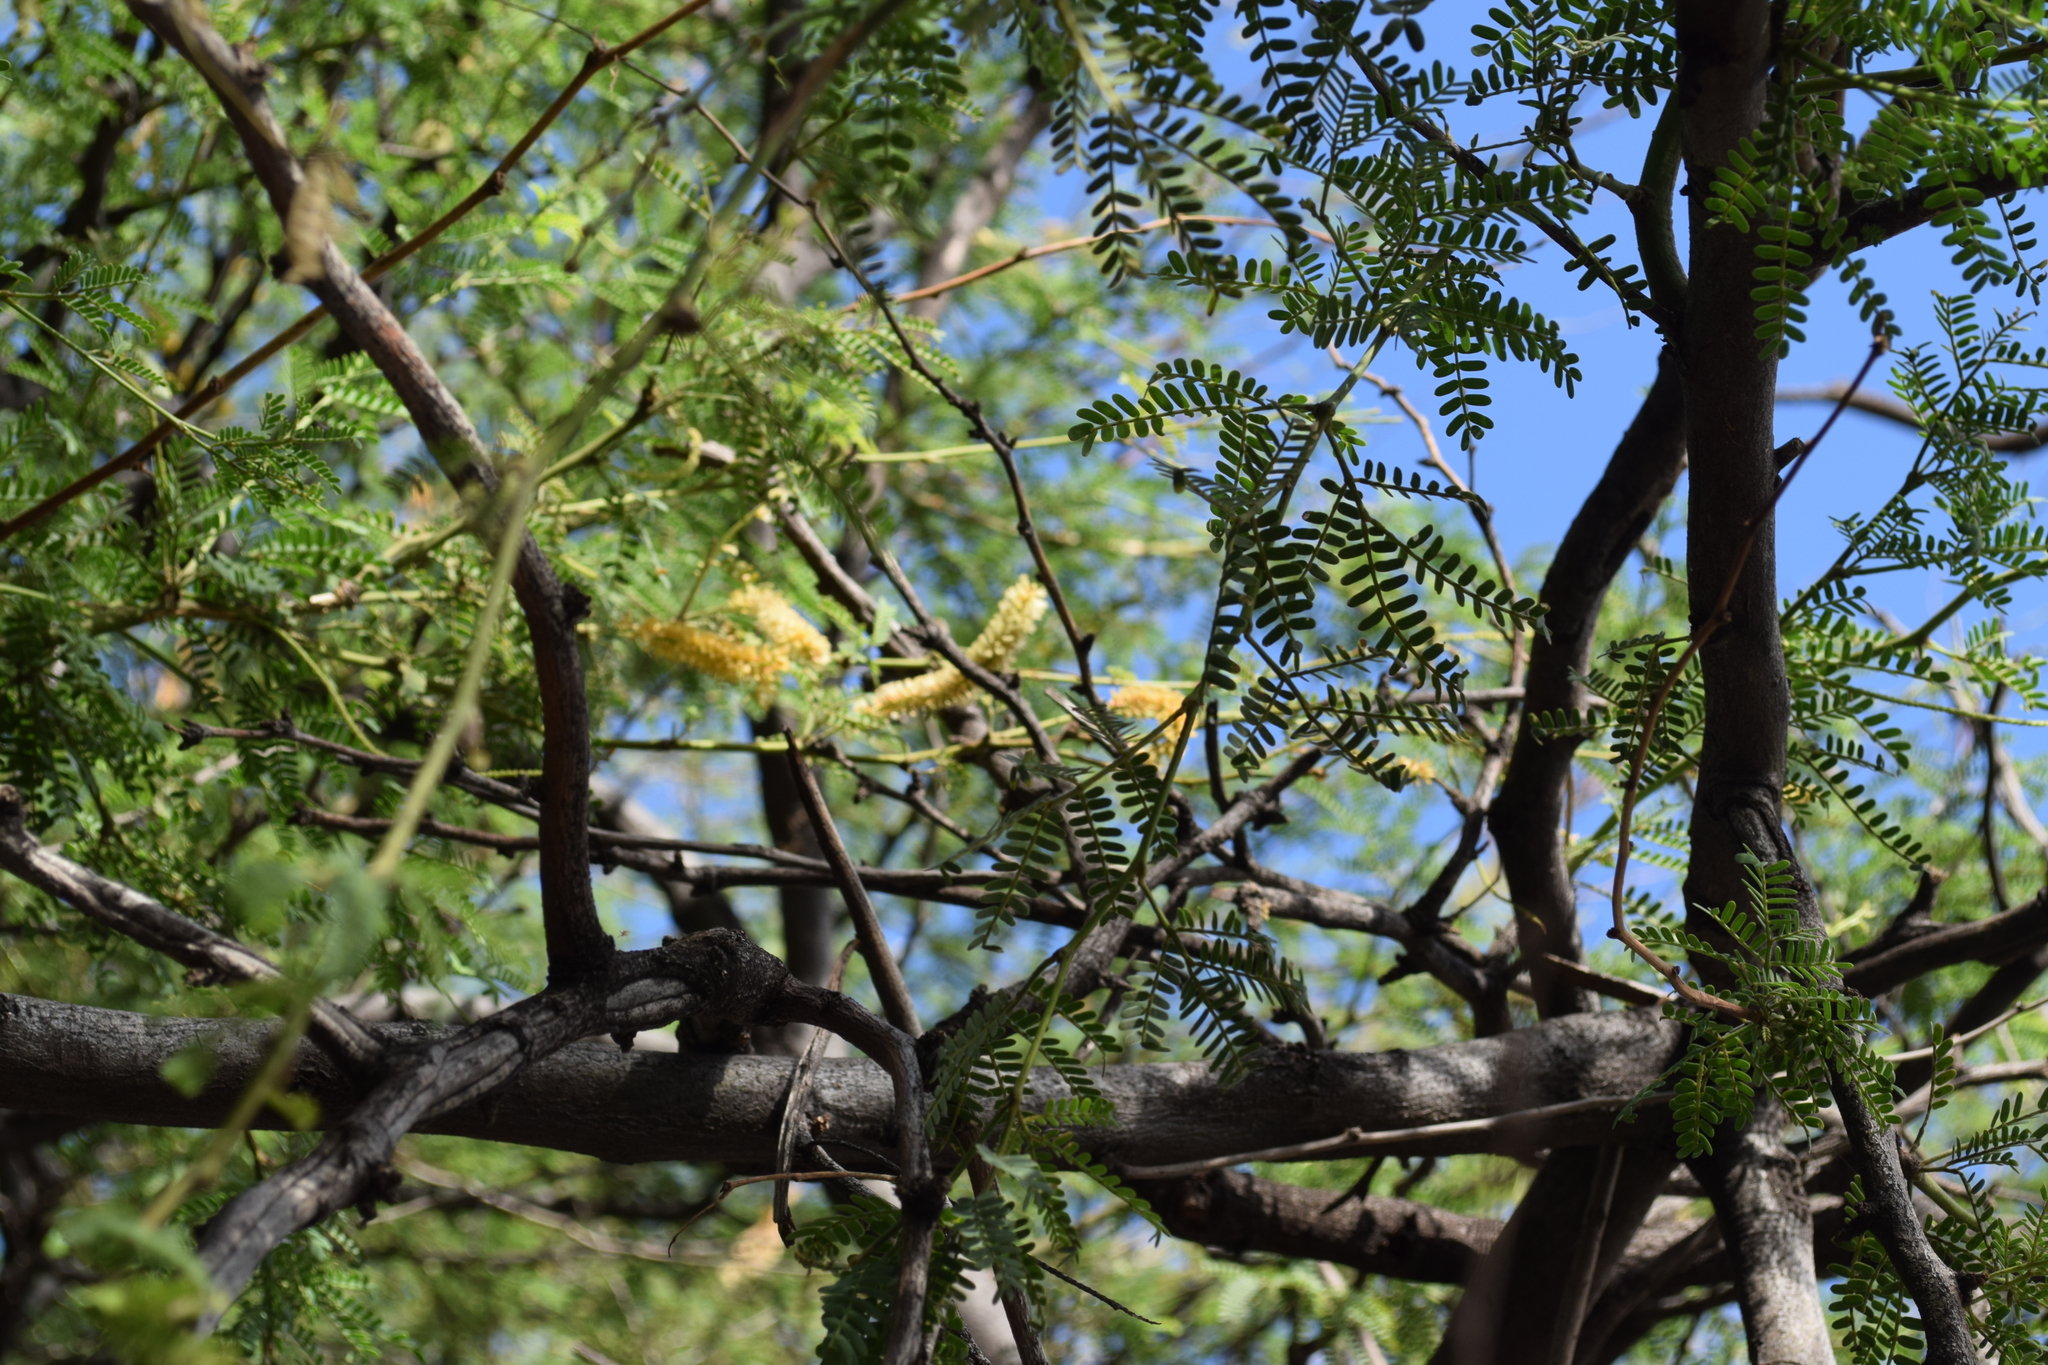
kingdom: Plantae
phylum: Tracheophyta
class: Magnoliopsida
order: Fabales
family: Fabaceae
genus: Prosopis
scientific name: Prosopis pallida
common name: Mesquite
